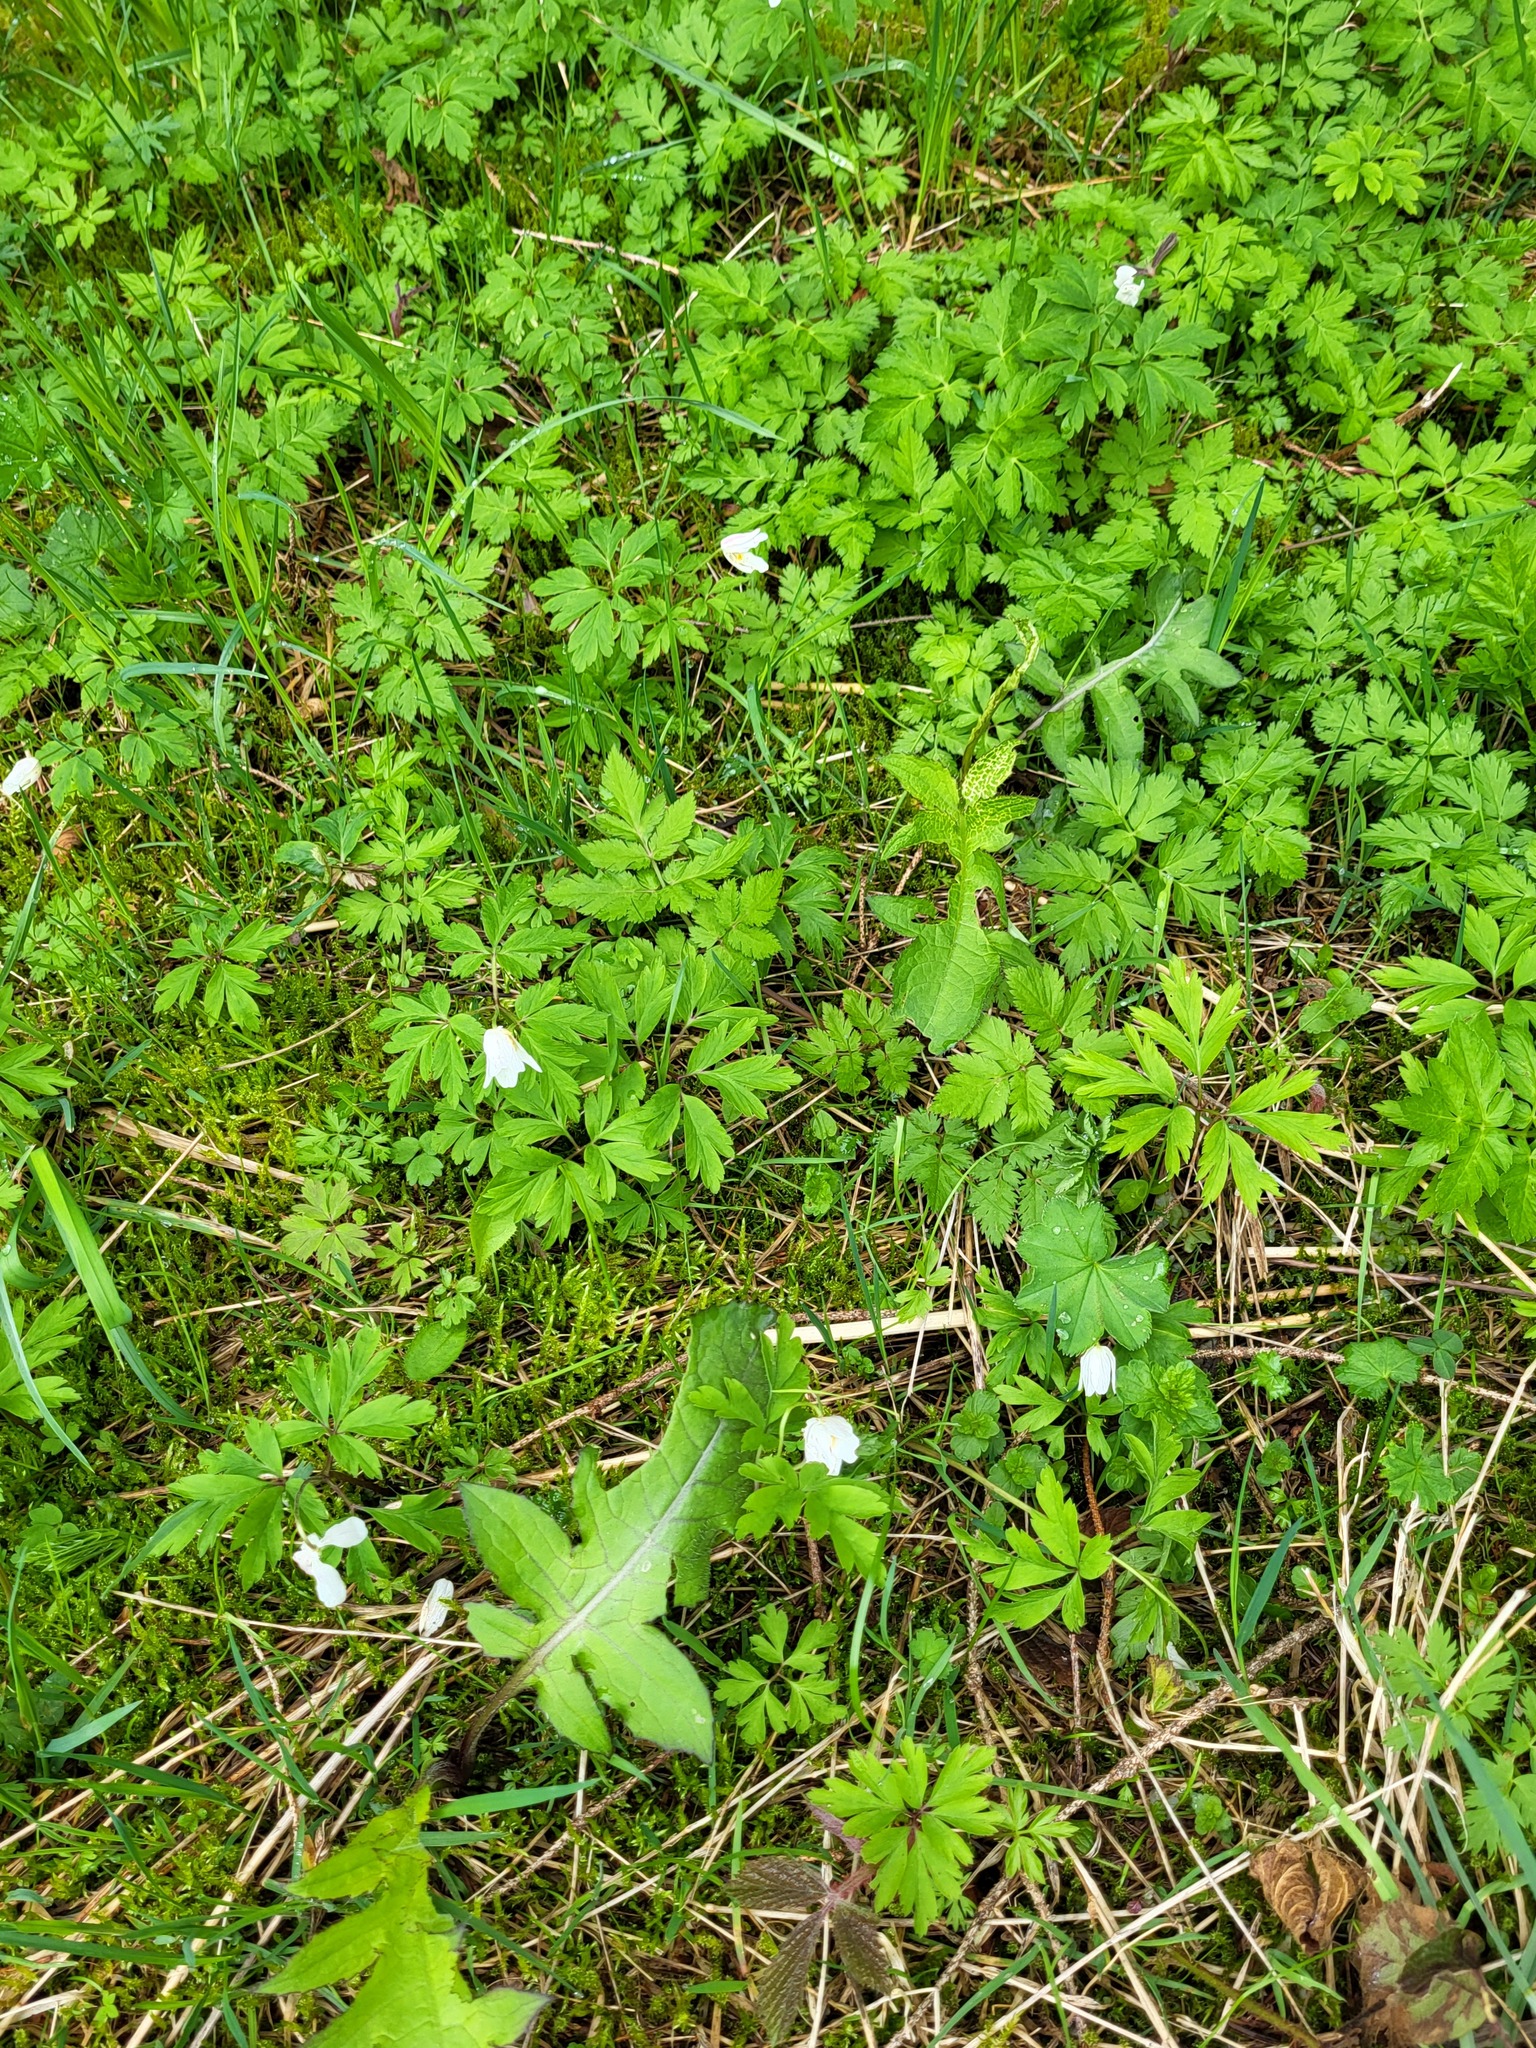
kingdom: Plantae
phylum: Tracheophyta
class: Magnoliopsida
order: Ranunculales
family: Ranunculaceae
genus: Anemone
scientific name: Anemone nemorosa
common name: Wood anemone
